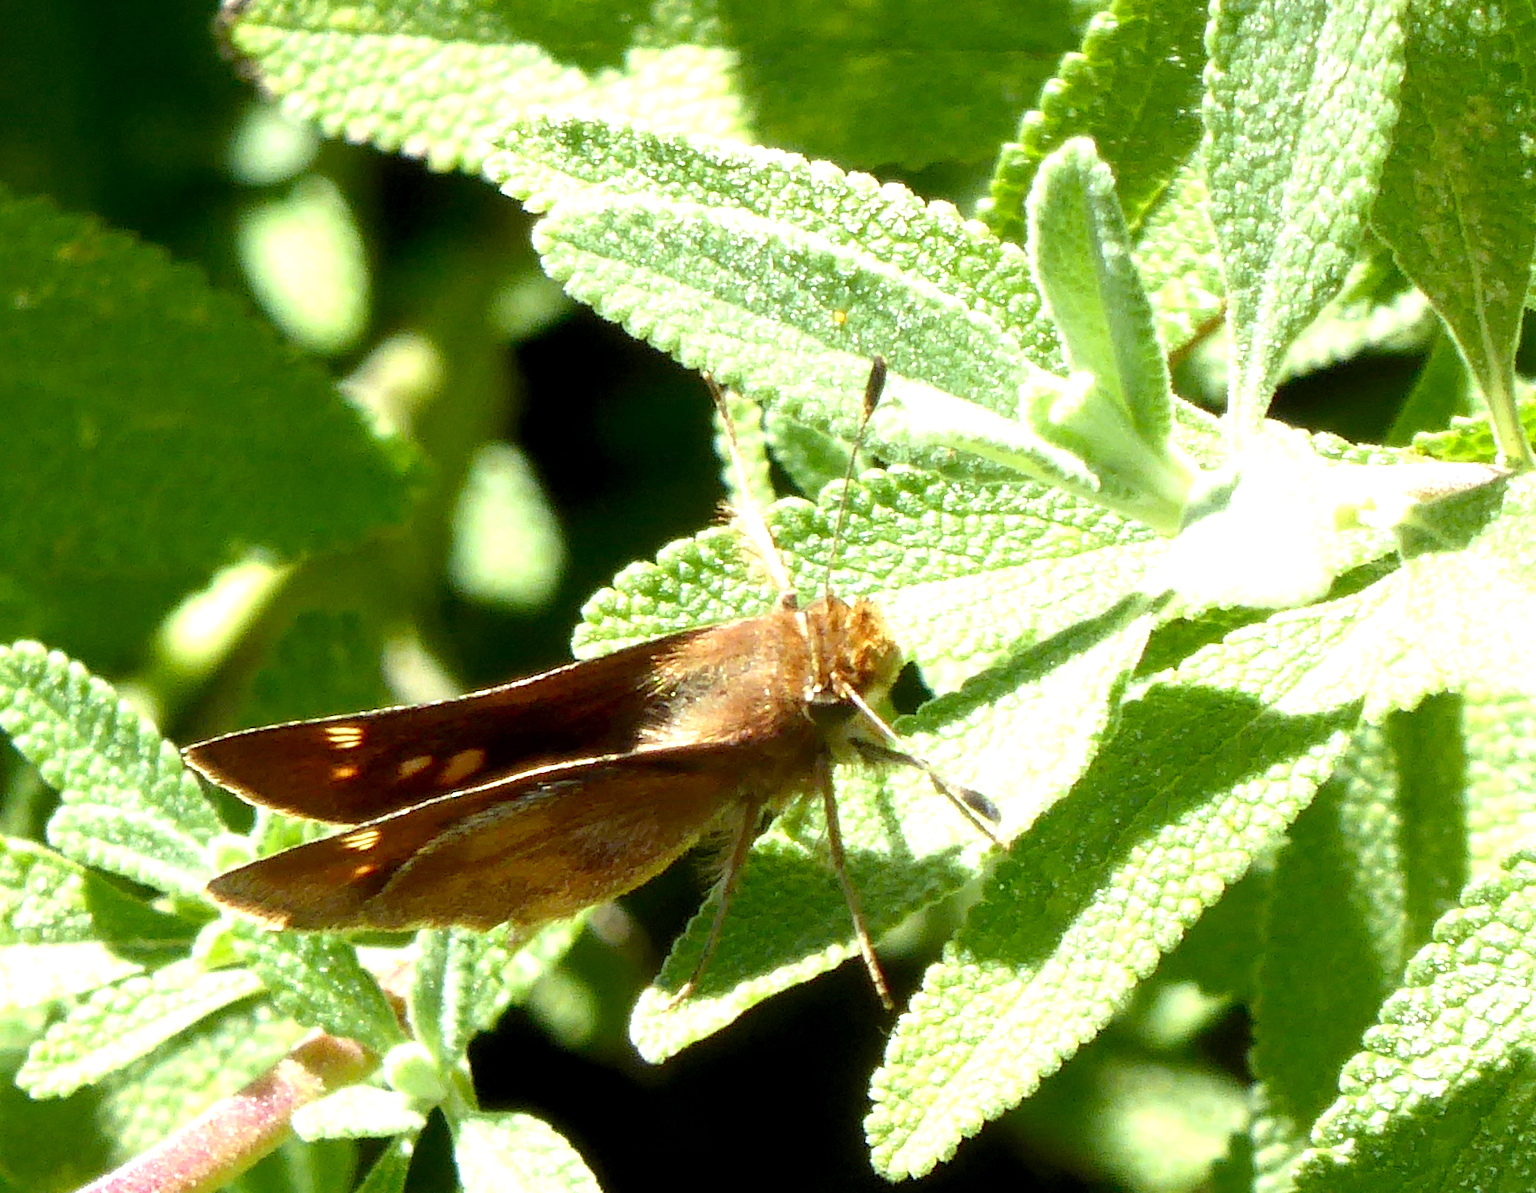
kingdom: Animalia
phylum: Arthropoda
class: Insecta
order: Lepidoptera
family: Hesperiidae
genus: Lon
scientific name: Lon melane
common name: Umber skipper
